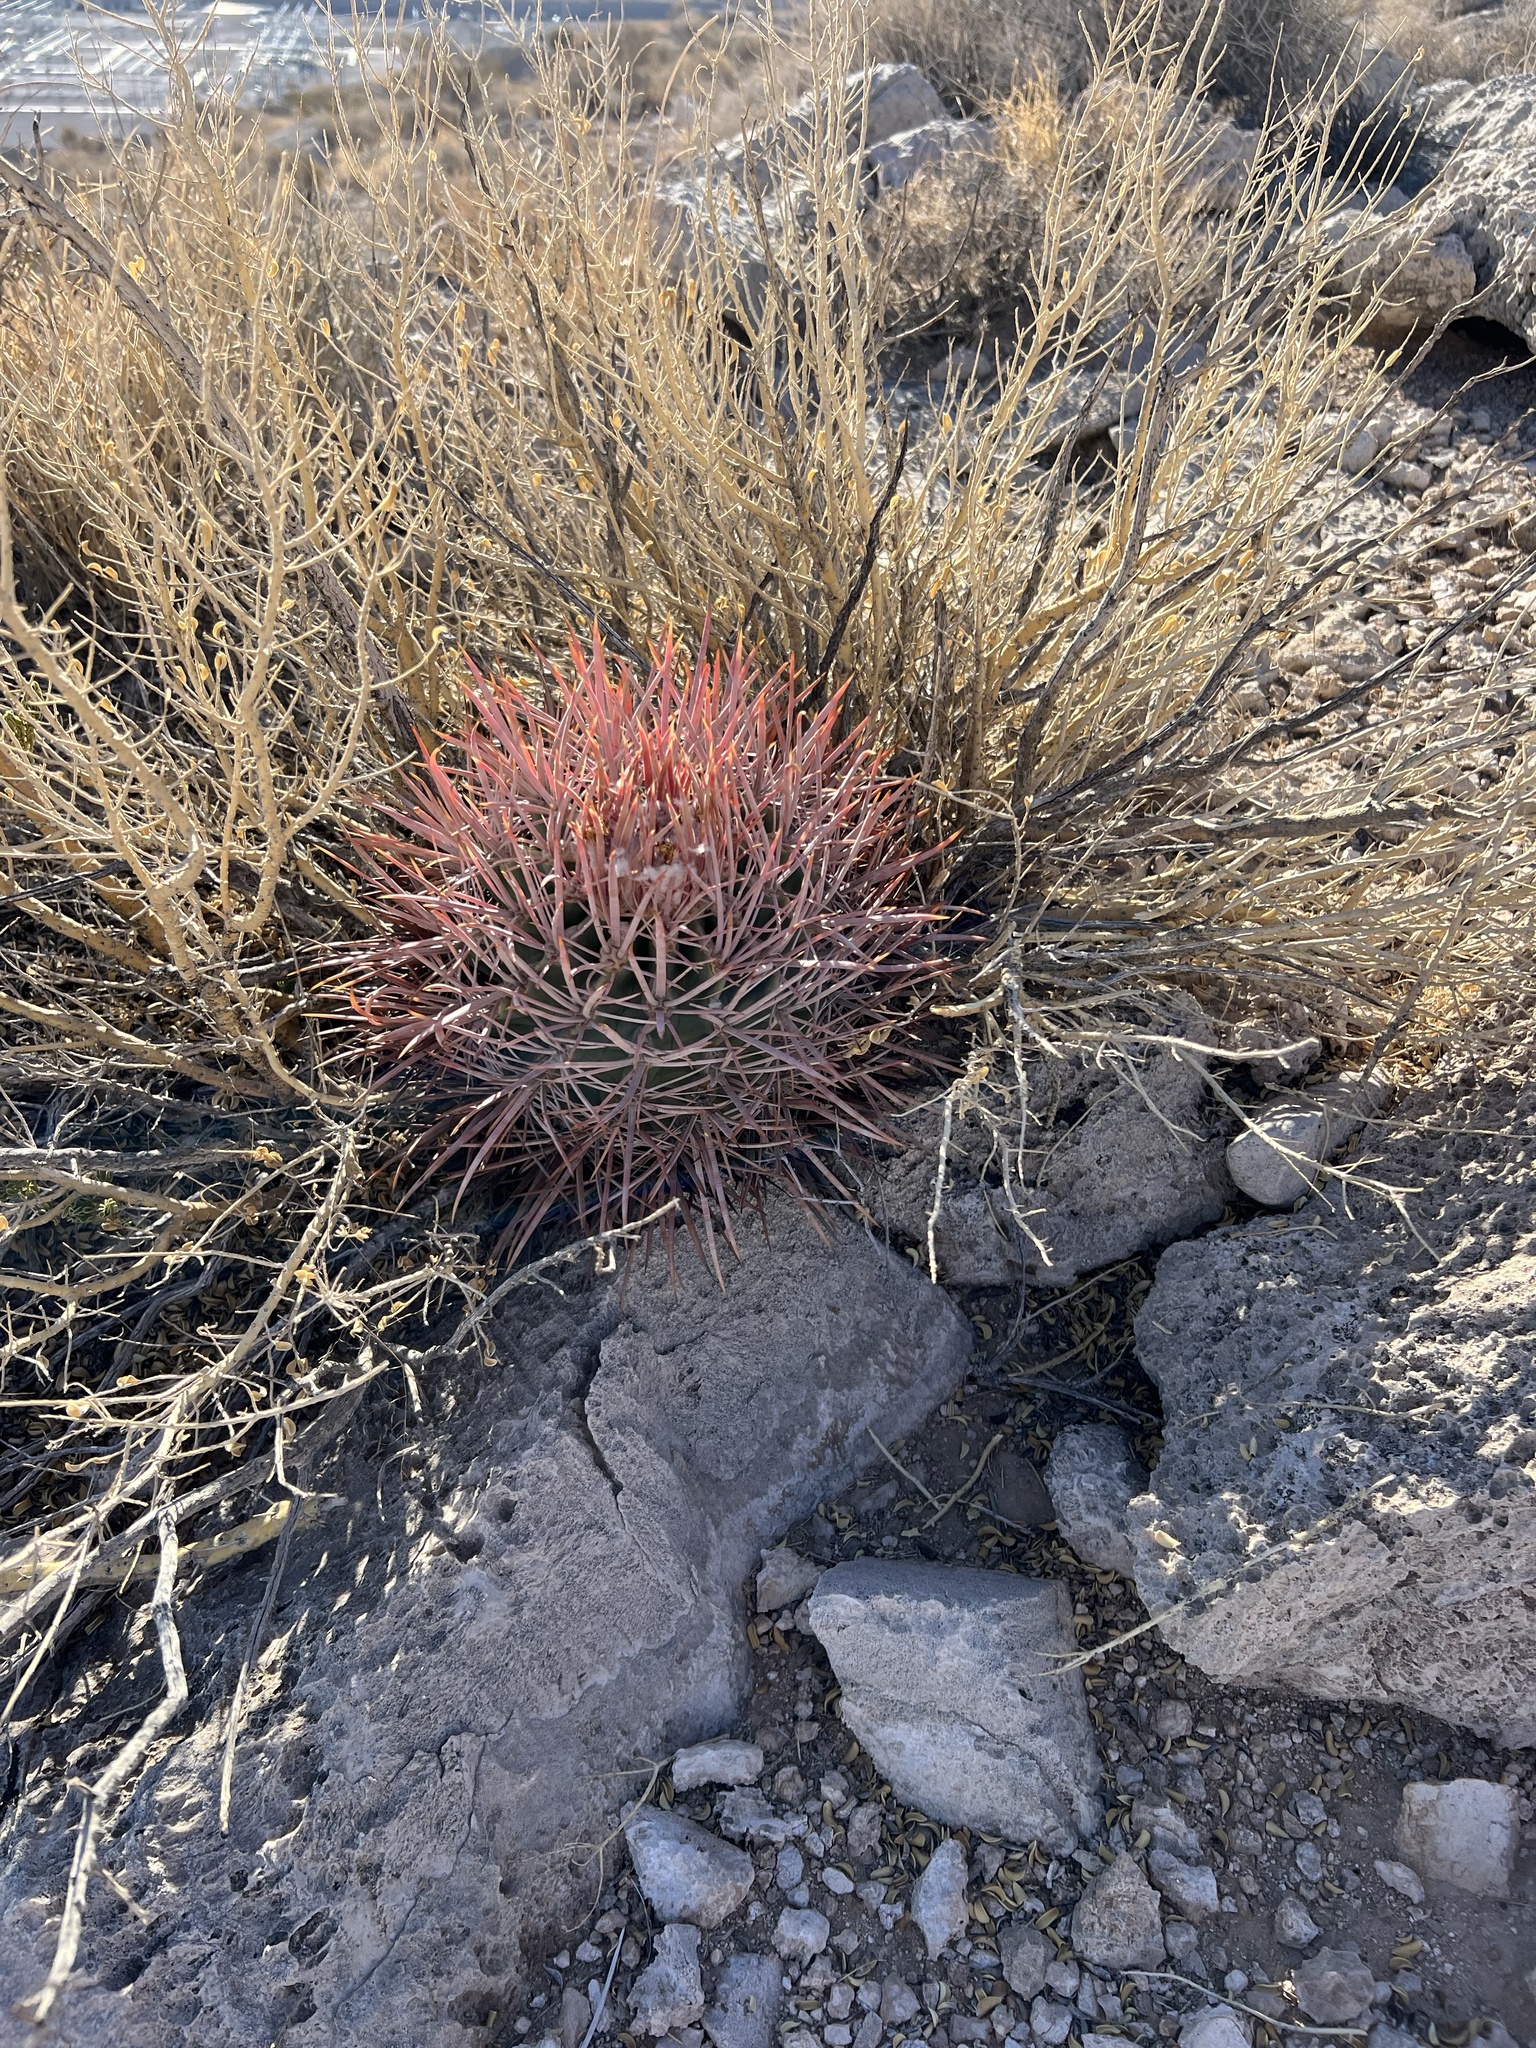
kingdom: Plantae
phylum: Tracheophyta
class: Magnoliopsida
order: Caryophyllales
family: Cactaceae
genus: Echinocactus
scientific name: Echinocactus polycephalus
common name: Cottontop cactus
